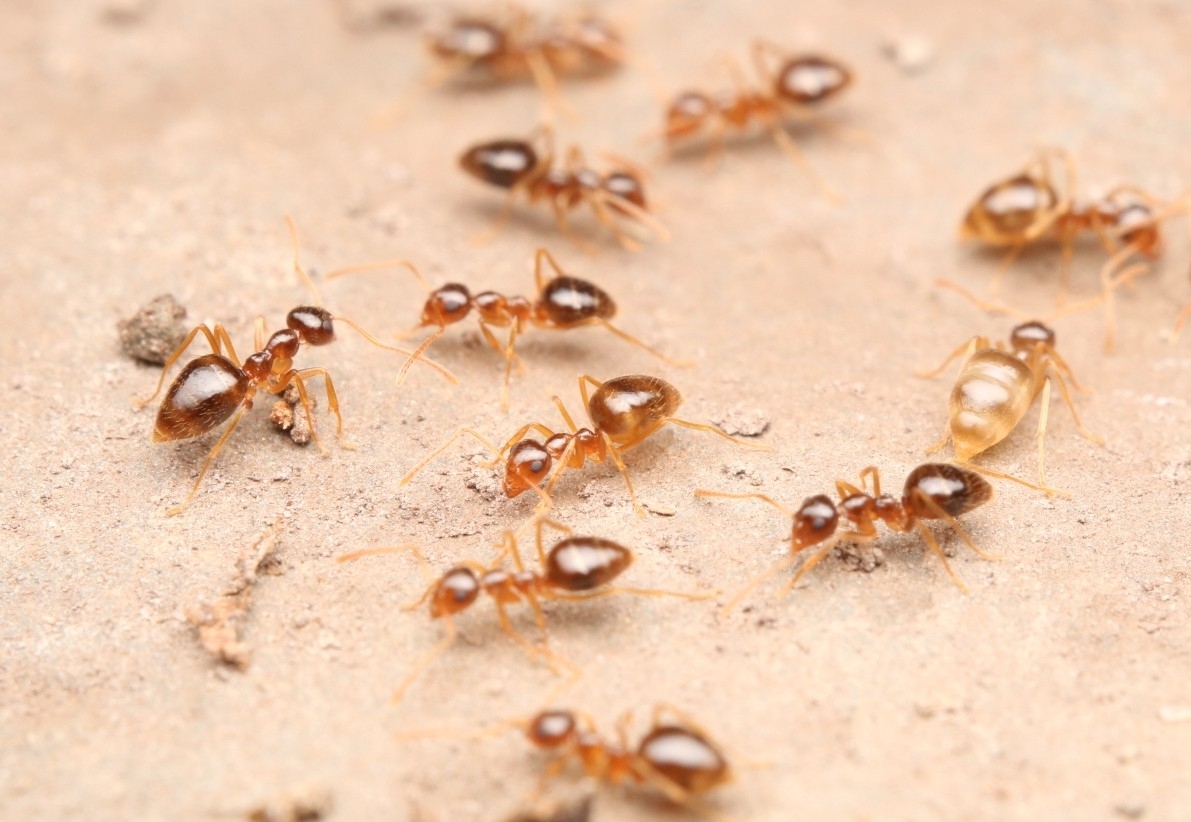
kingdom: Animalia
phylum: Arthropoda
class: Insecta
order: Hymenoptera
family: Formicidae
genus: Prenolepis
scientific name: Prenolepis imparis
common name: Small honey ant
